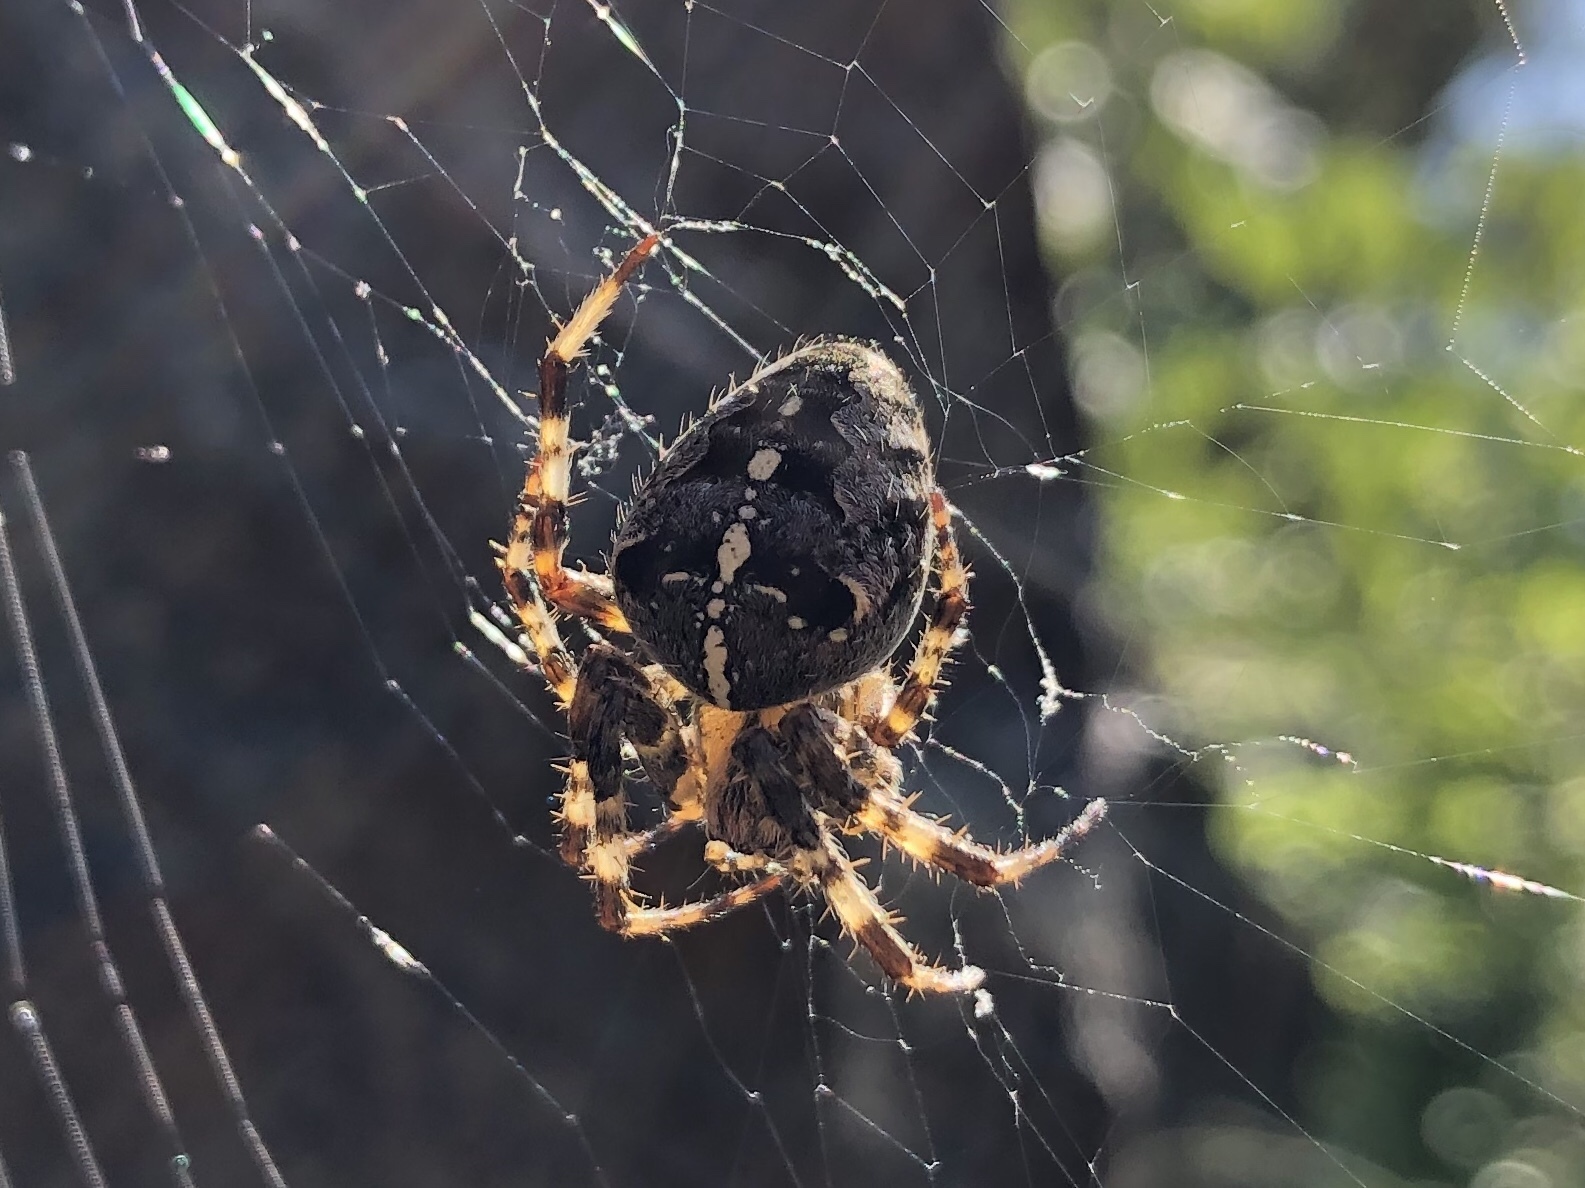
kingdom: Animalia
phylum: Arthropoda
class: Arachnida
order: Araneae
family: Araneidae
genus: Araneus
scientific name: Araneus diadematus
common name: Cross orbweaver
